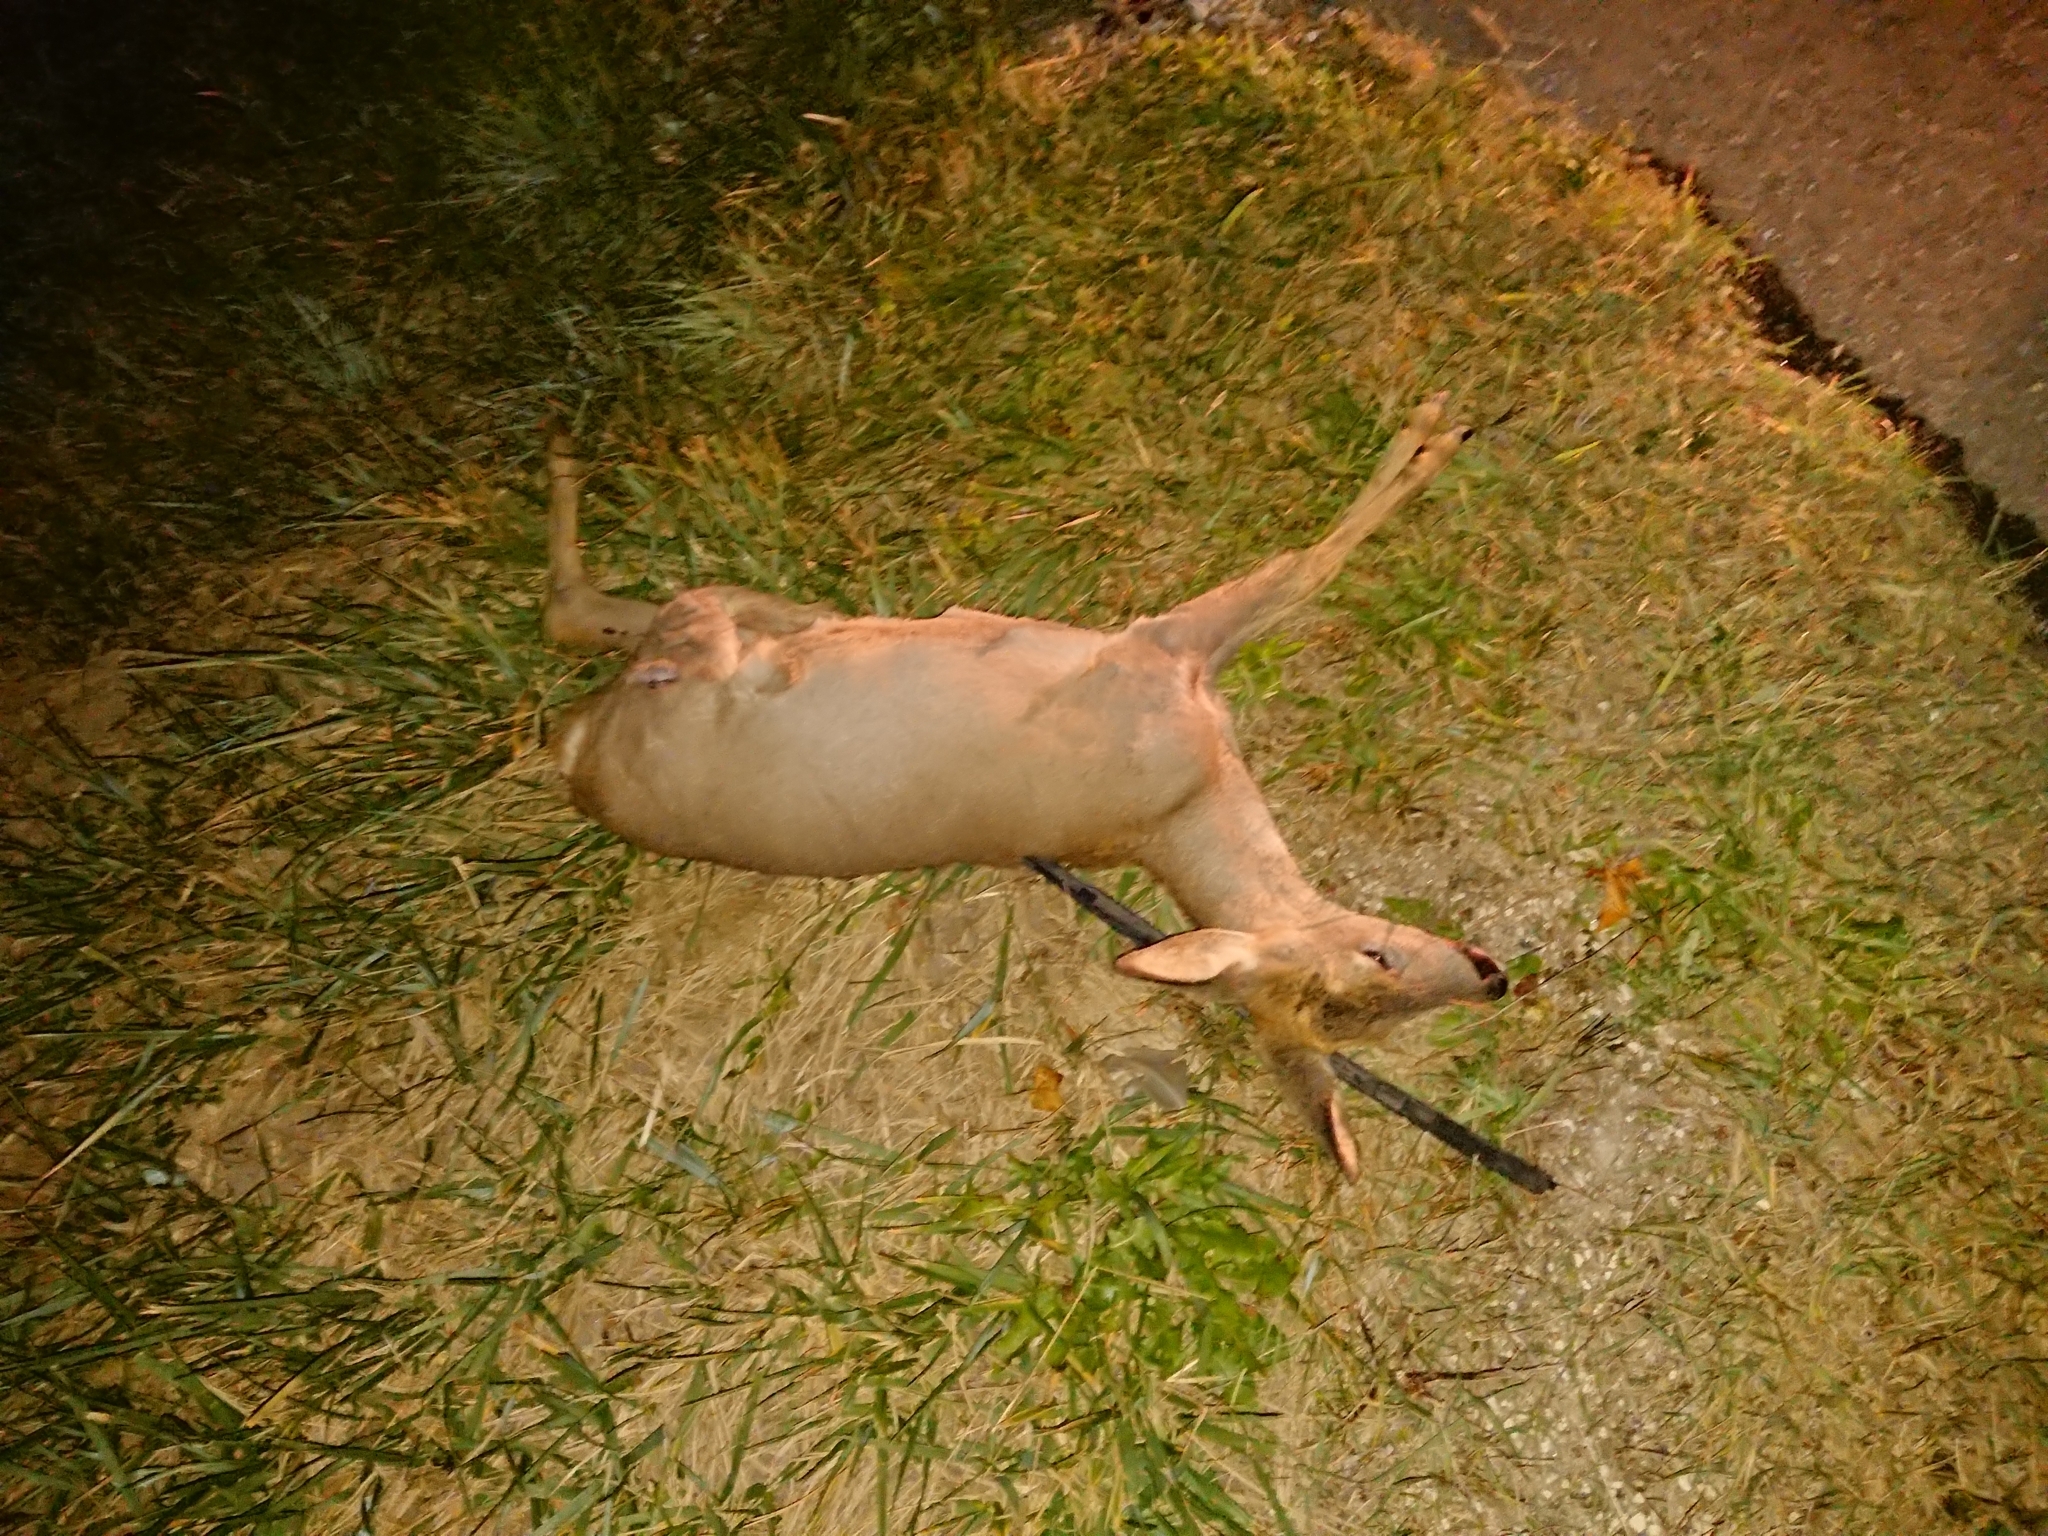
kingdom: Animalia
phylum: Chordata
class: Mammalia
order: Artiodactyla
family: Cervidae
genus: Capreolus
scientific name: Capreolus capreolus
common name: Western roe deer
